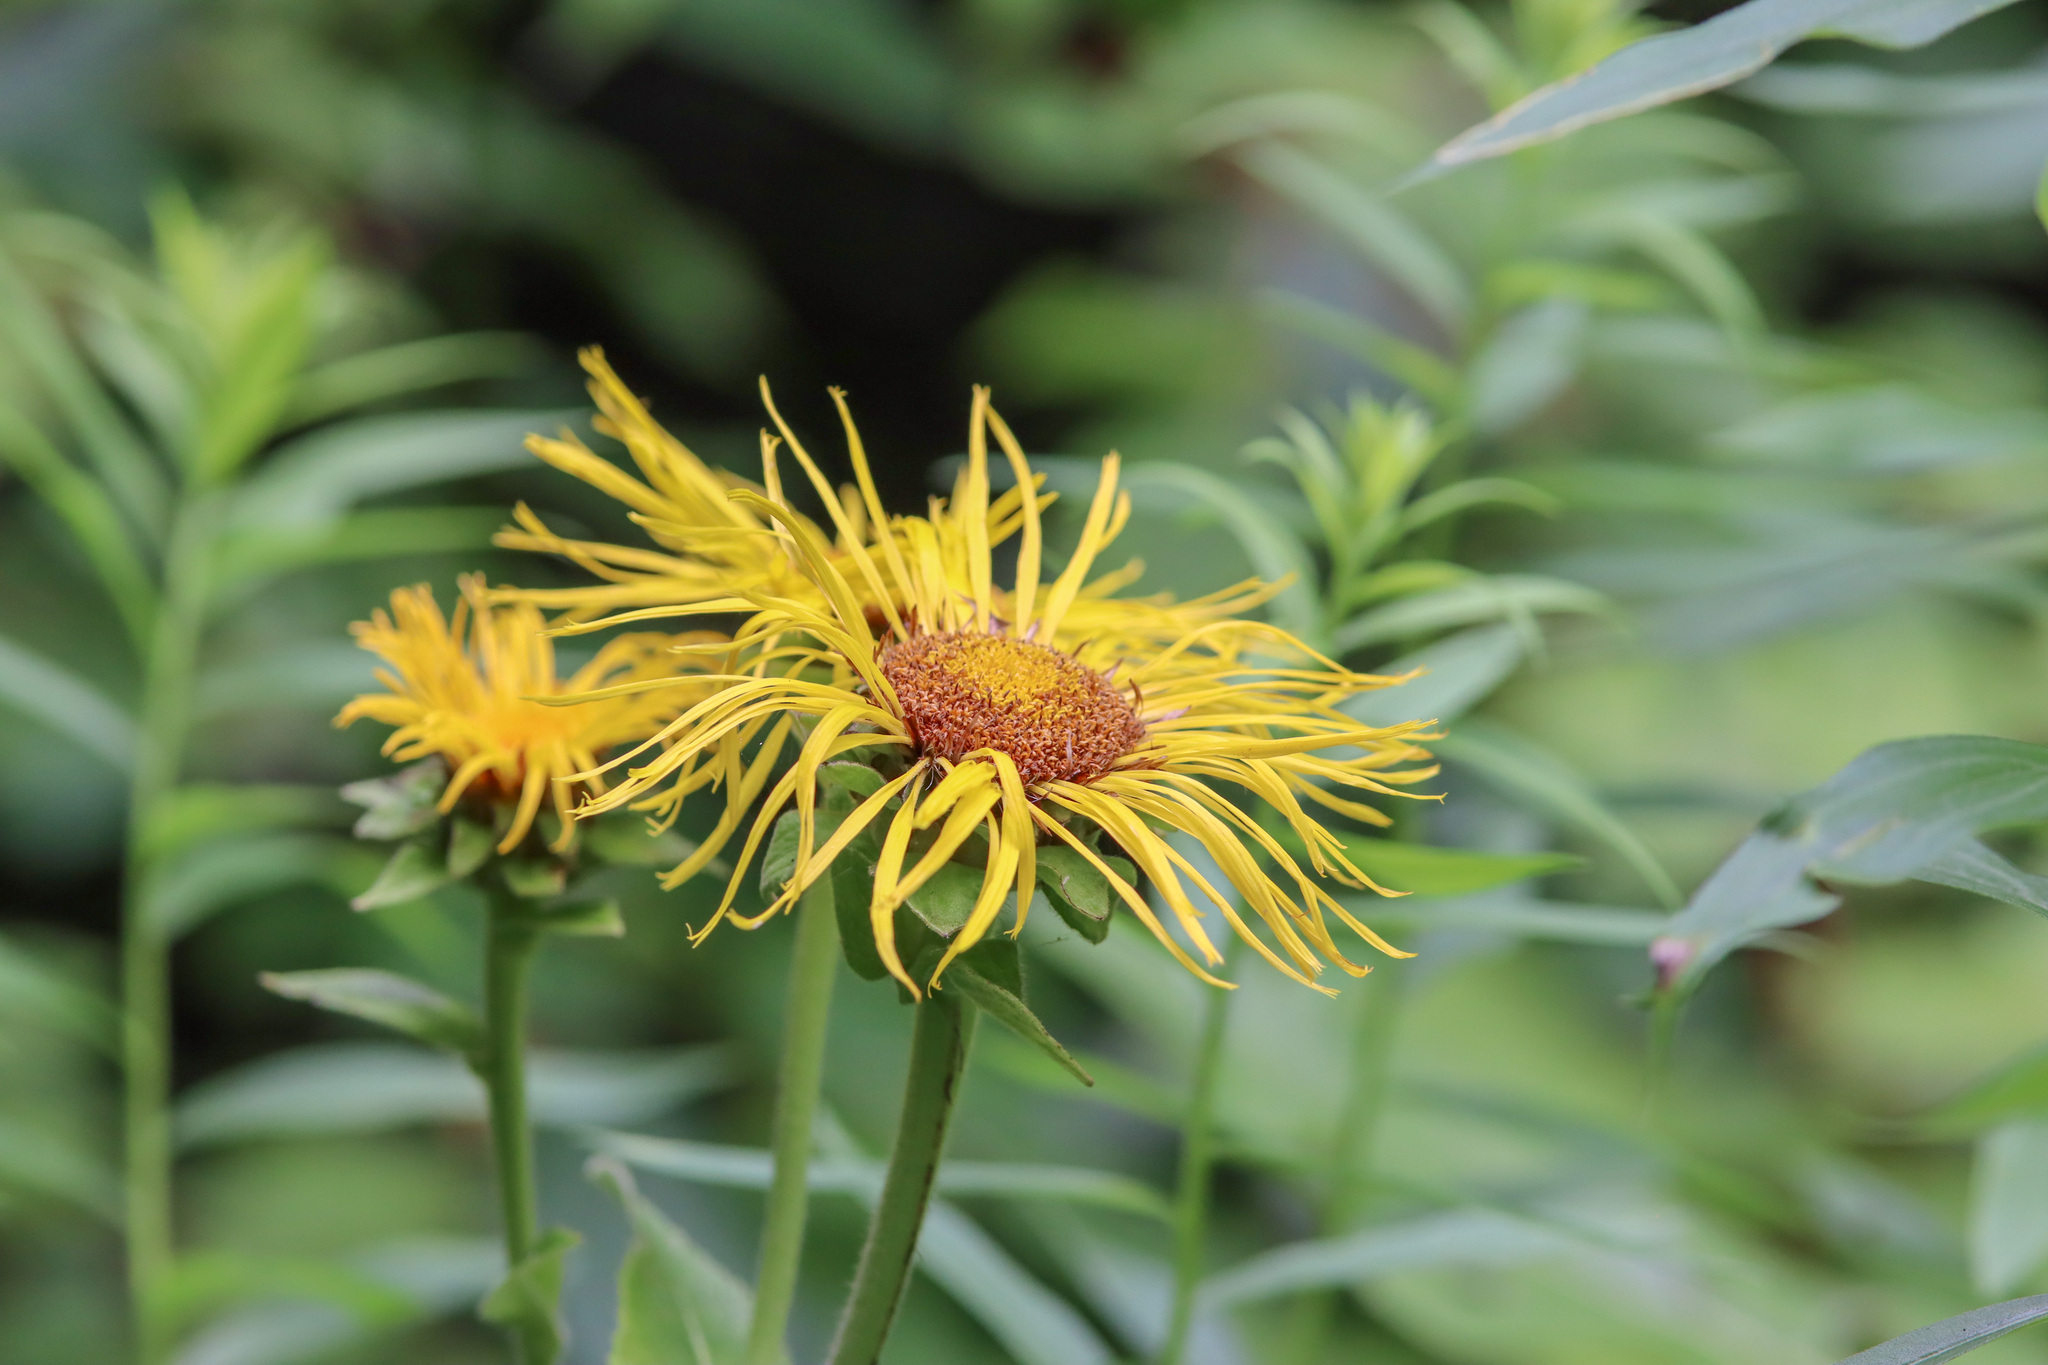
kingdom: Plantae
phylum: Tracheophyta
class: Magnoliopsida
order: Asterales
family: Asteraceae
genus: Inula
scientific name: Inula helenium
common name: Elecampane
